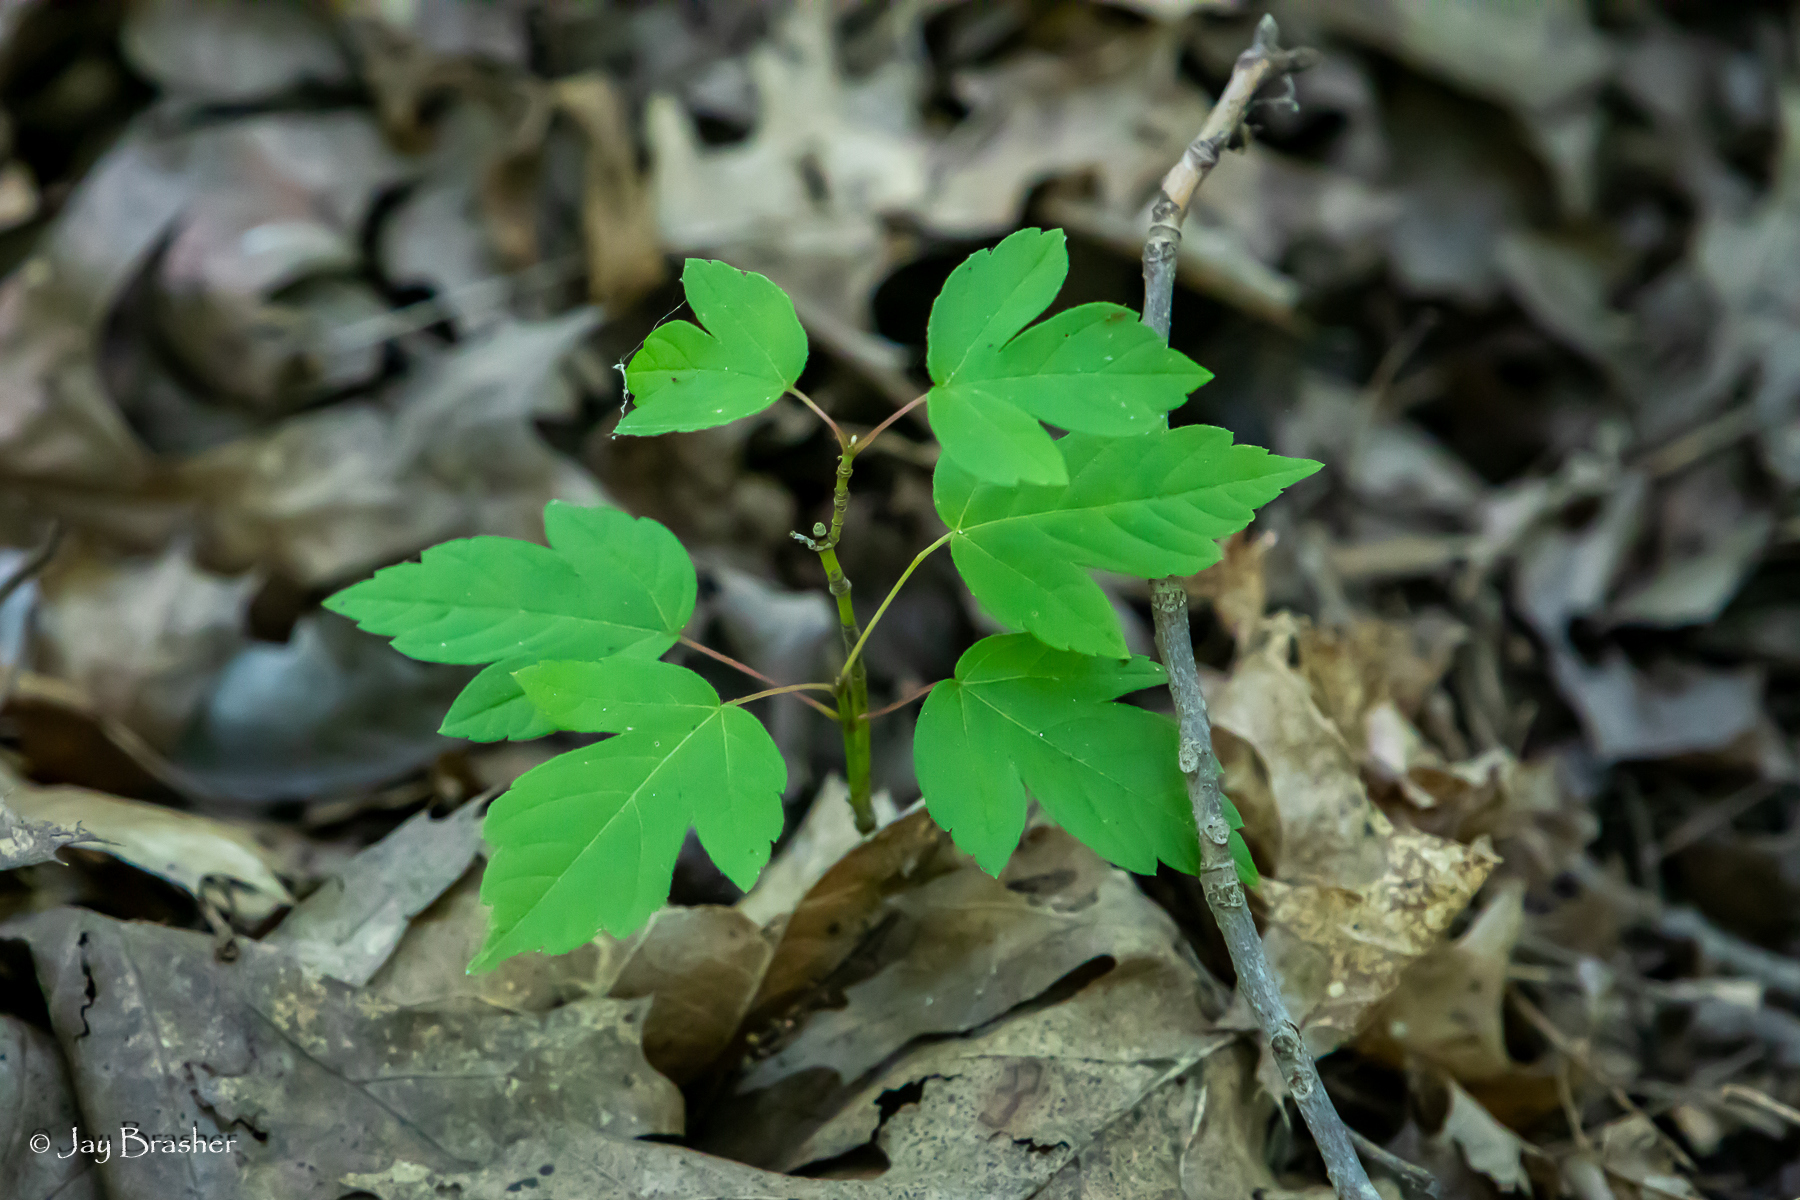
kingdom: Plantae
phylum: Tracheophyta
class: Magnoliopsida
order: Sapindales
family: Sapindaceae
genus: Acer
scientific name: Acer negundo
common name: Ashleaf maple
